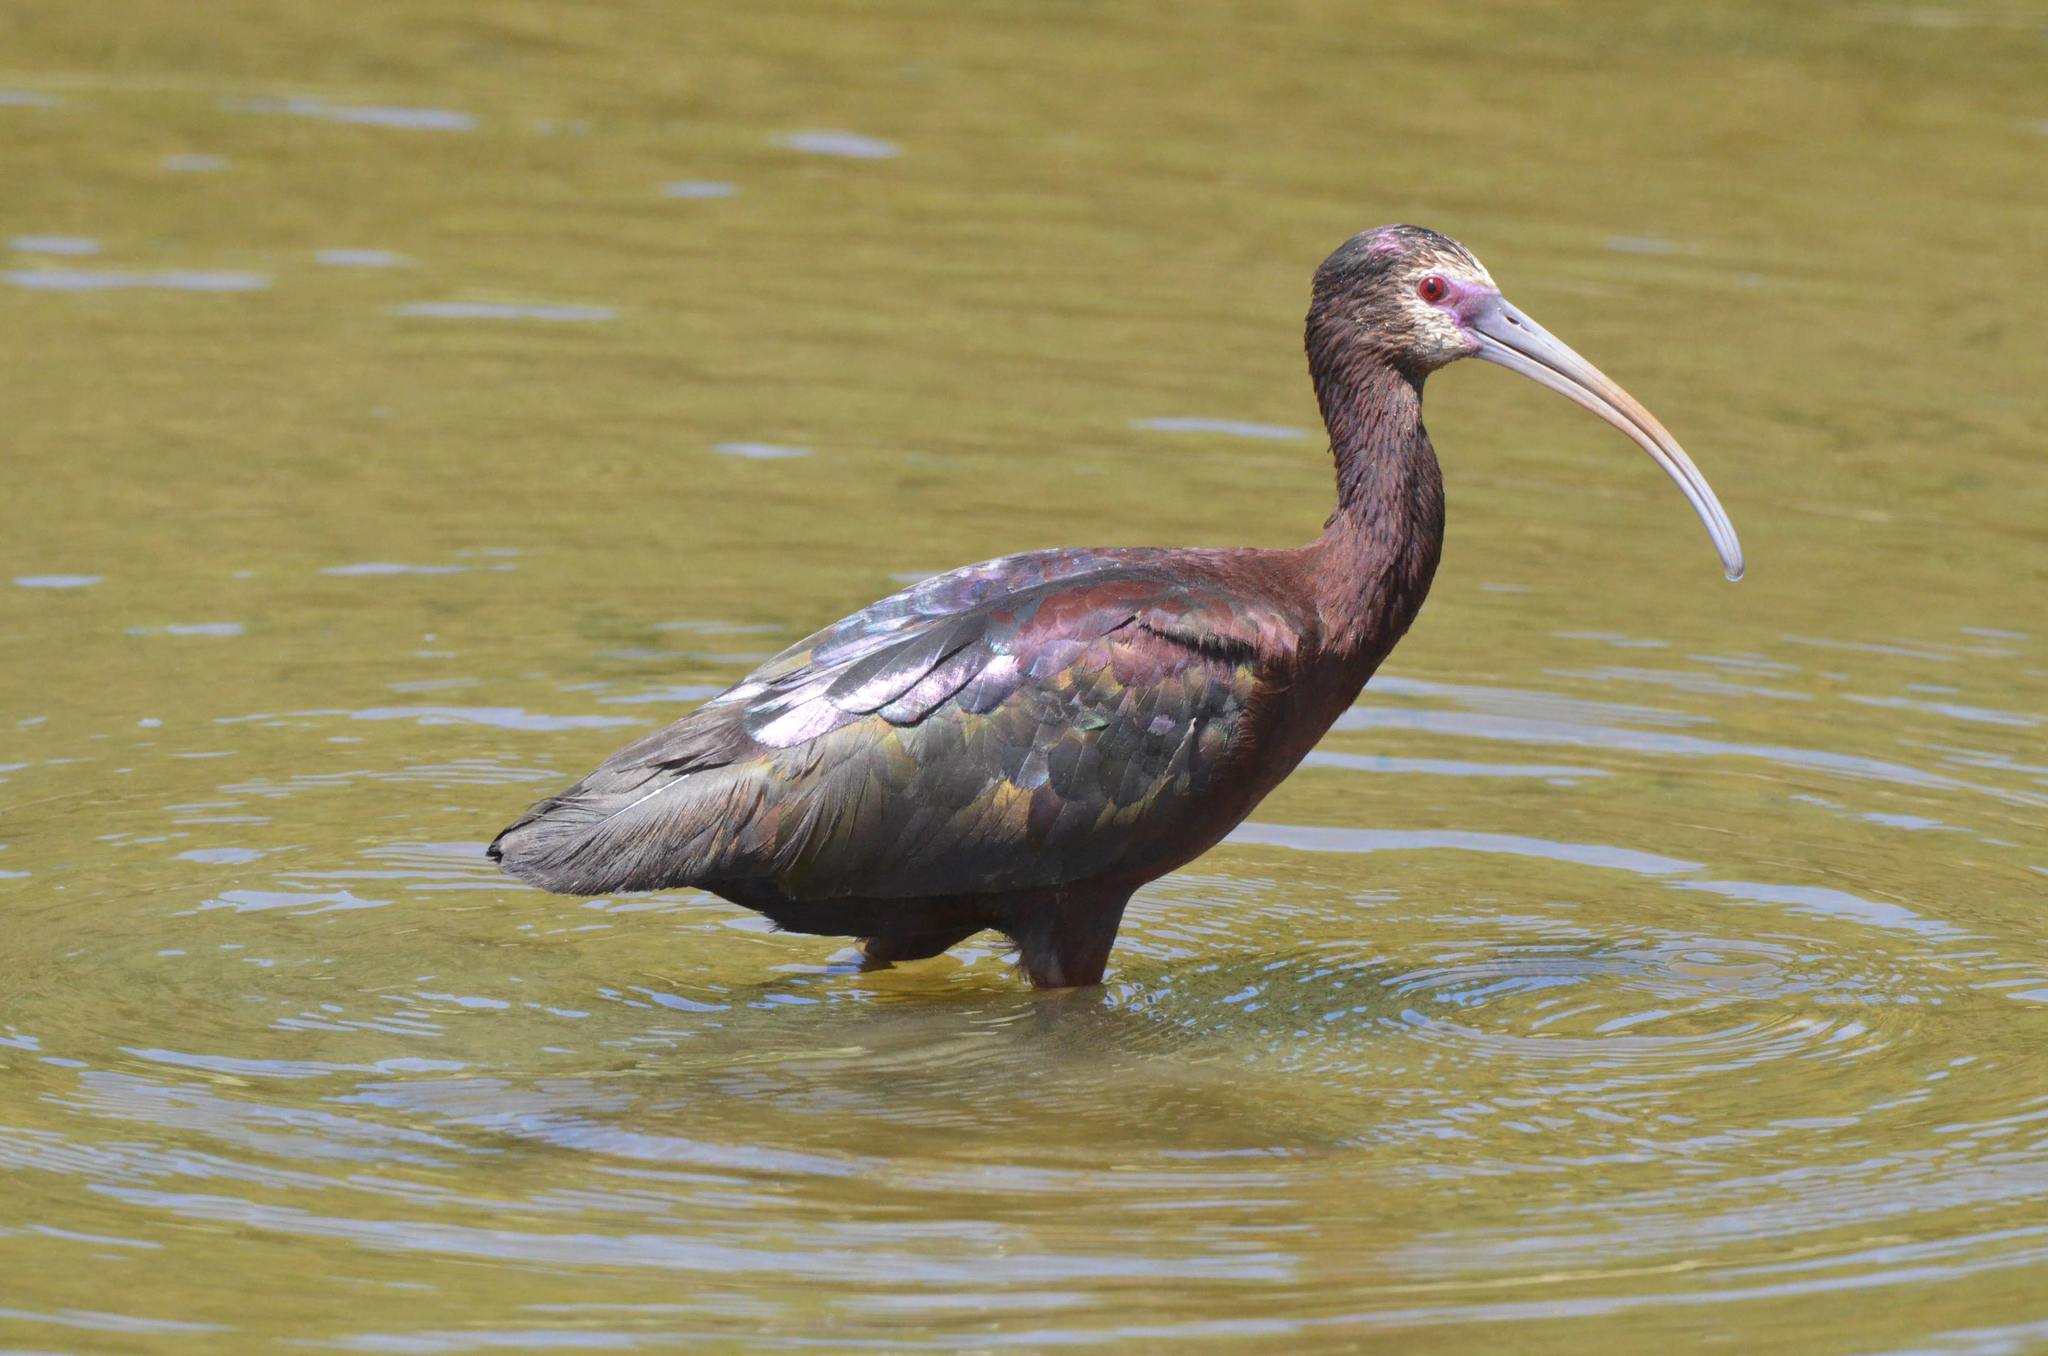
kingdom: Animalia
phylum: Chordata
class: Aves
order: Pelecaniformes
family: Threskiornithidae
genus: Plegadis
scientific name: Plegadis chihi
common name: White-faced ibis
